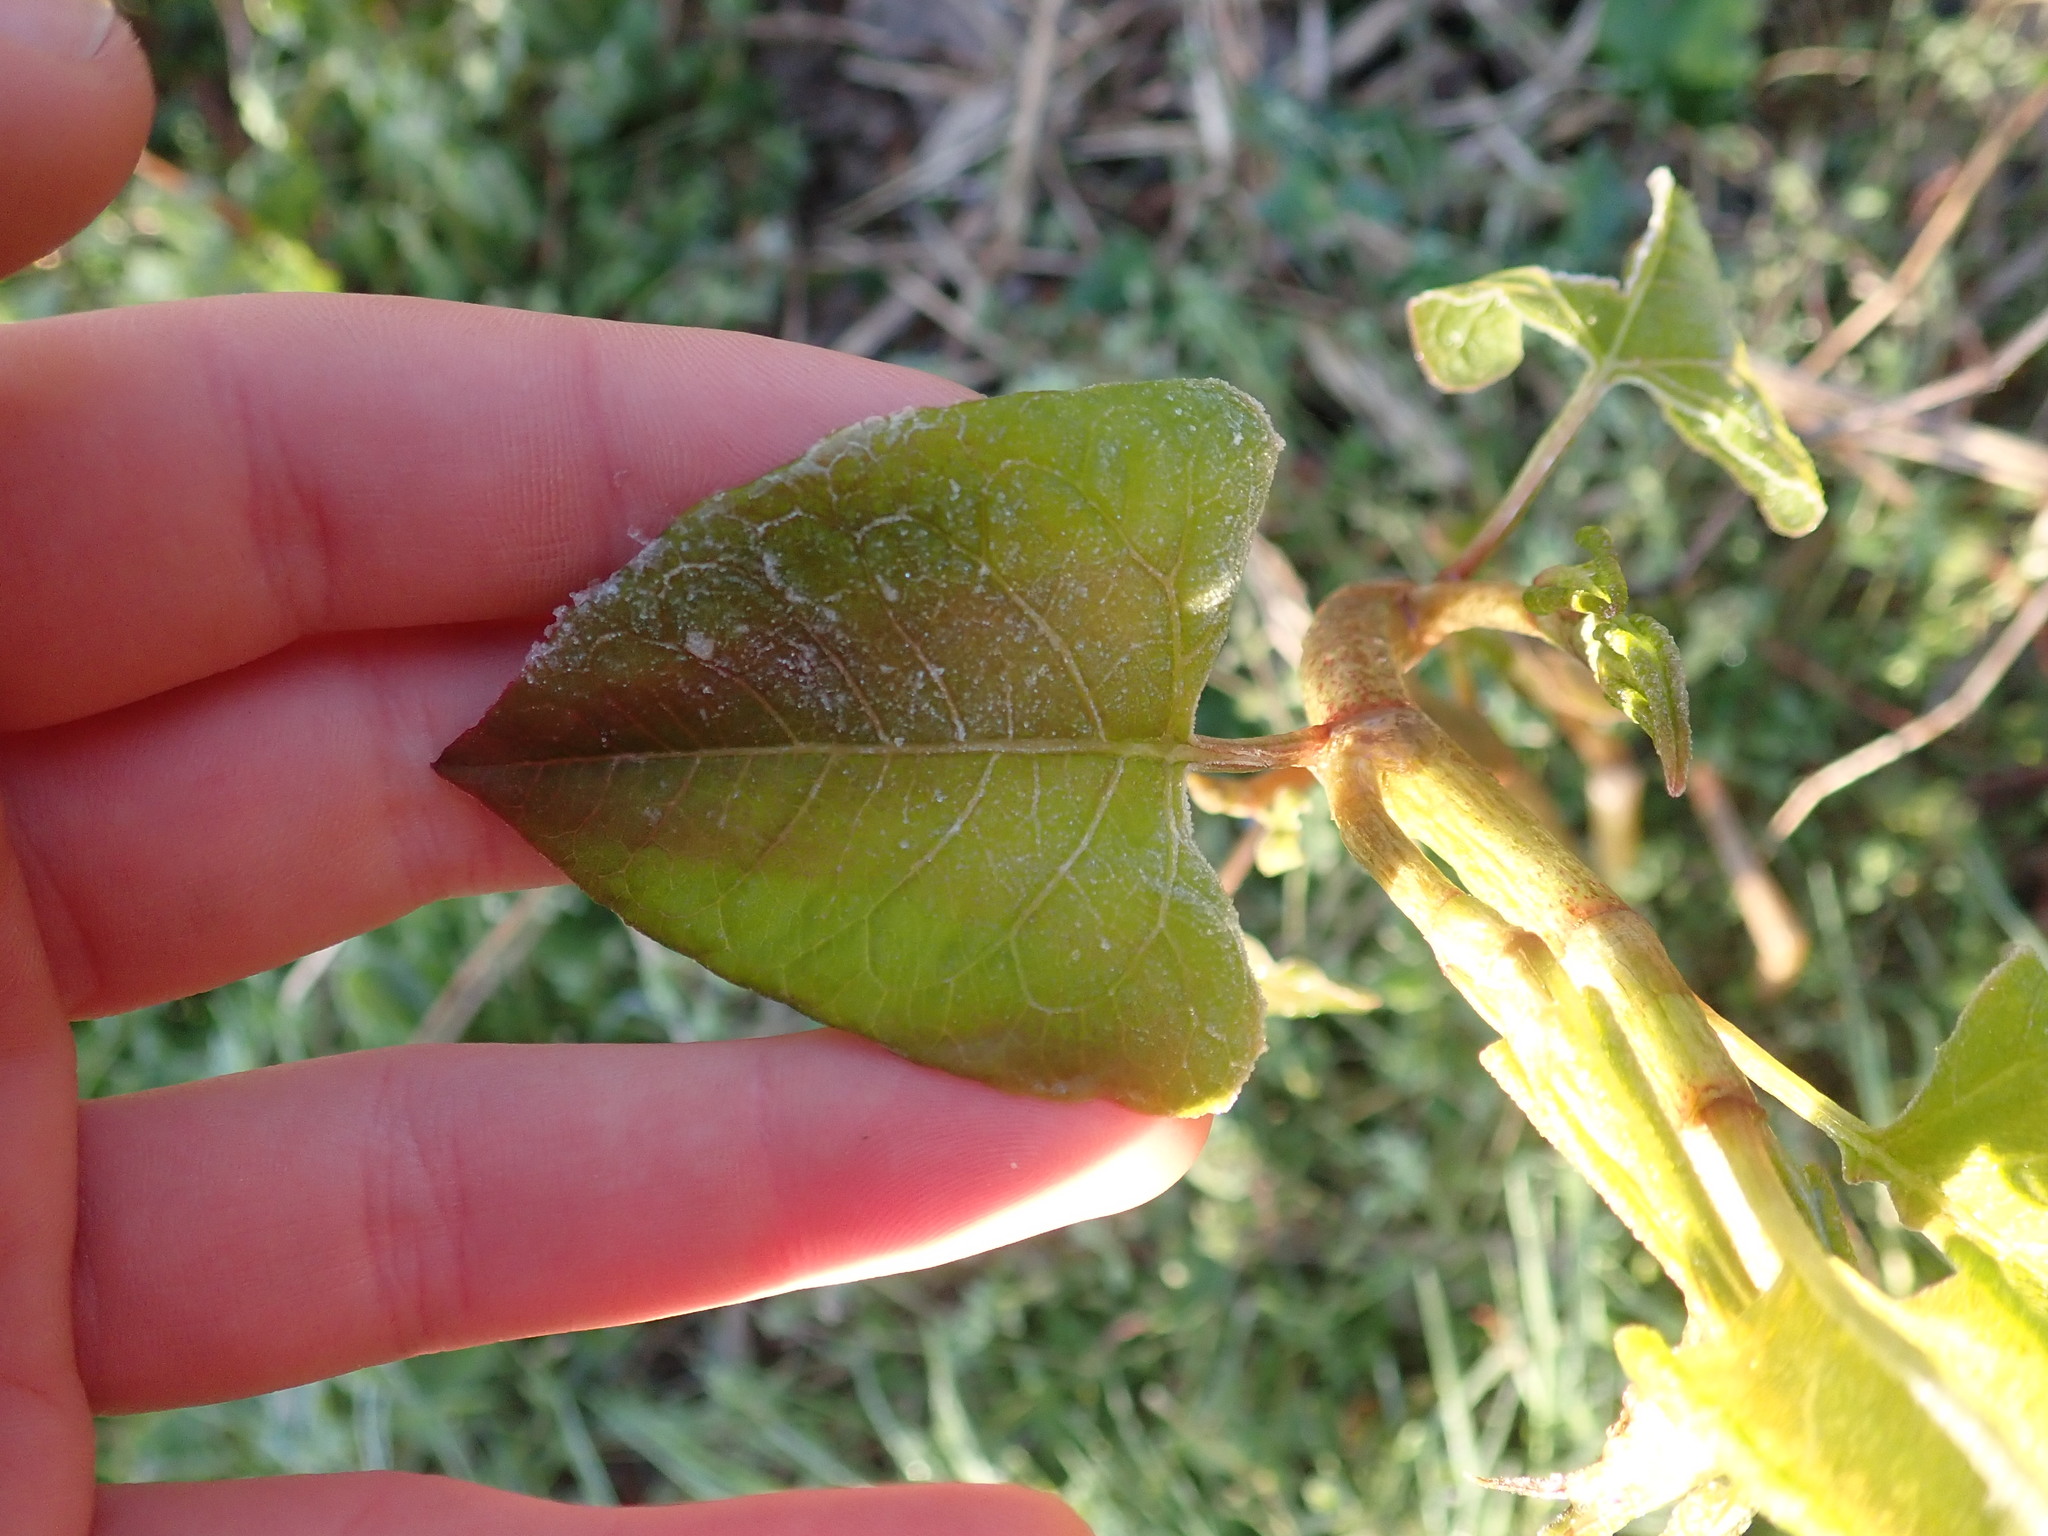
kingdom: Plantae
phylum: Tracheophyta
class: Magnoliopsida
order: Caryophyllales
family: Polygonaceae
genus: Reynoutria
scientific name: Reynoutria
